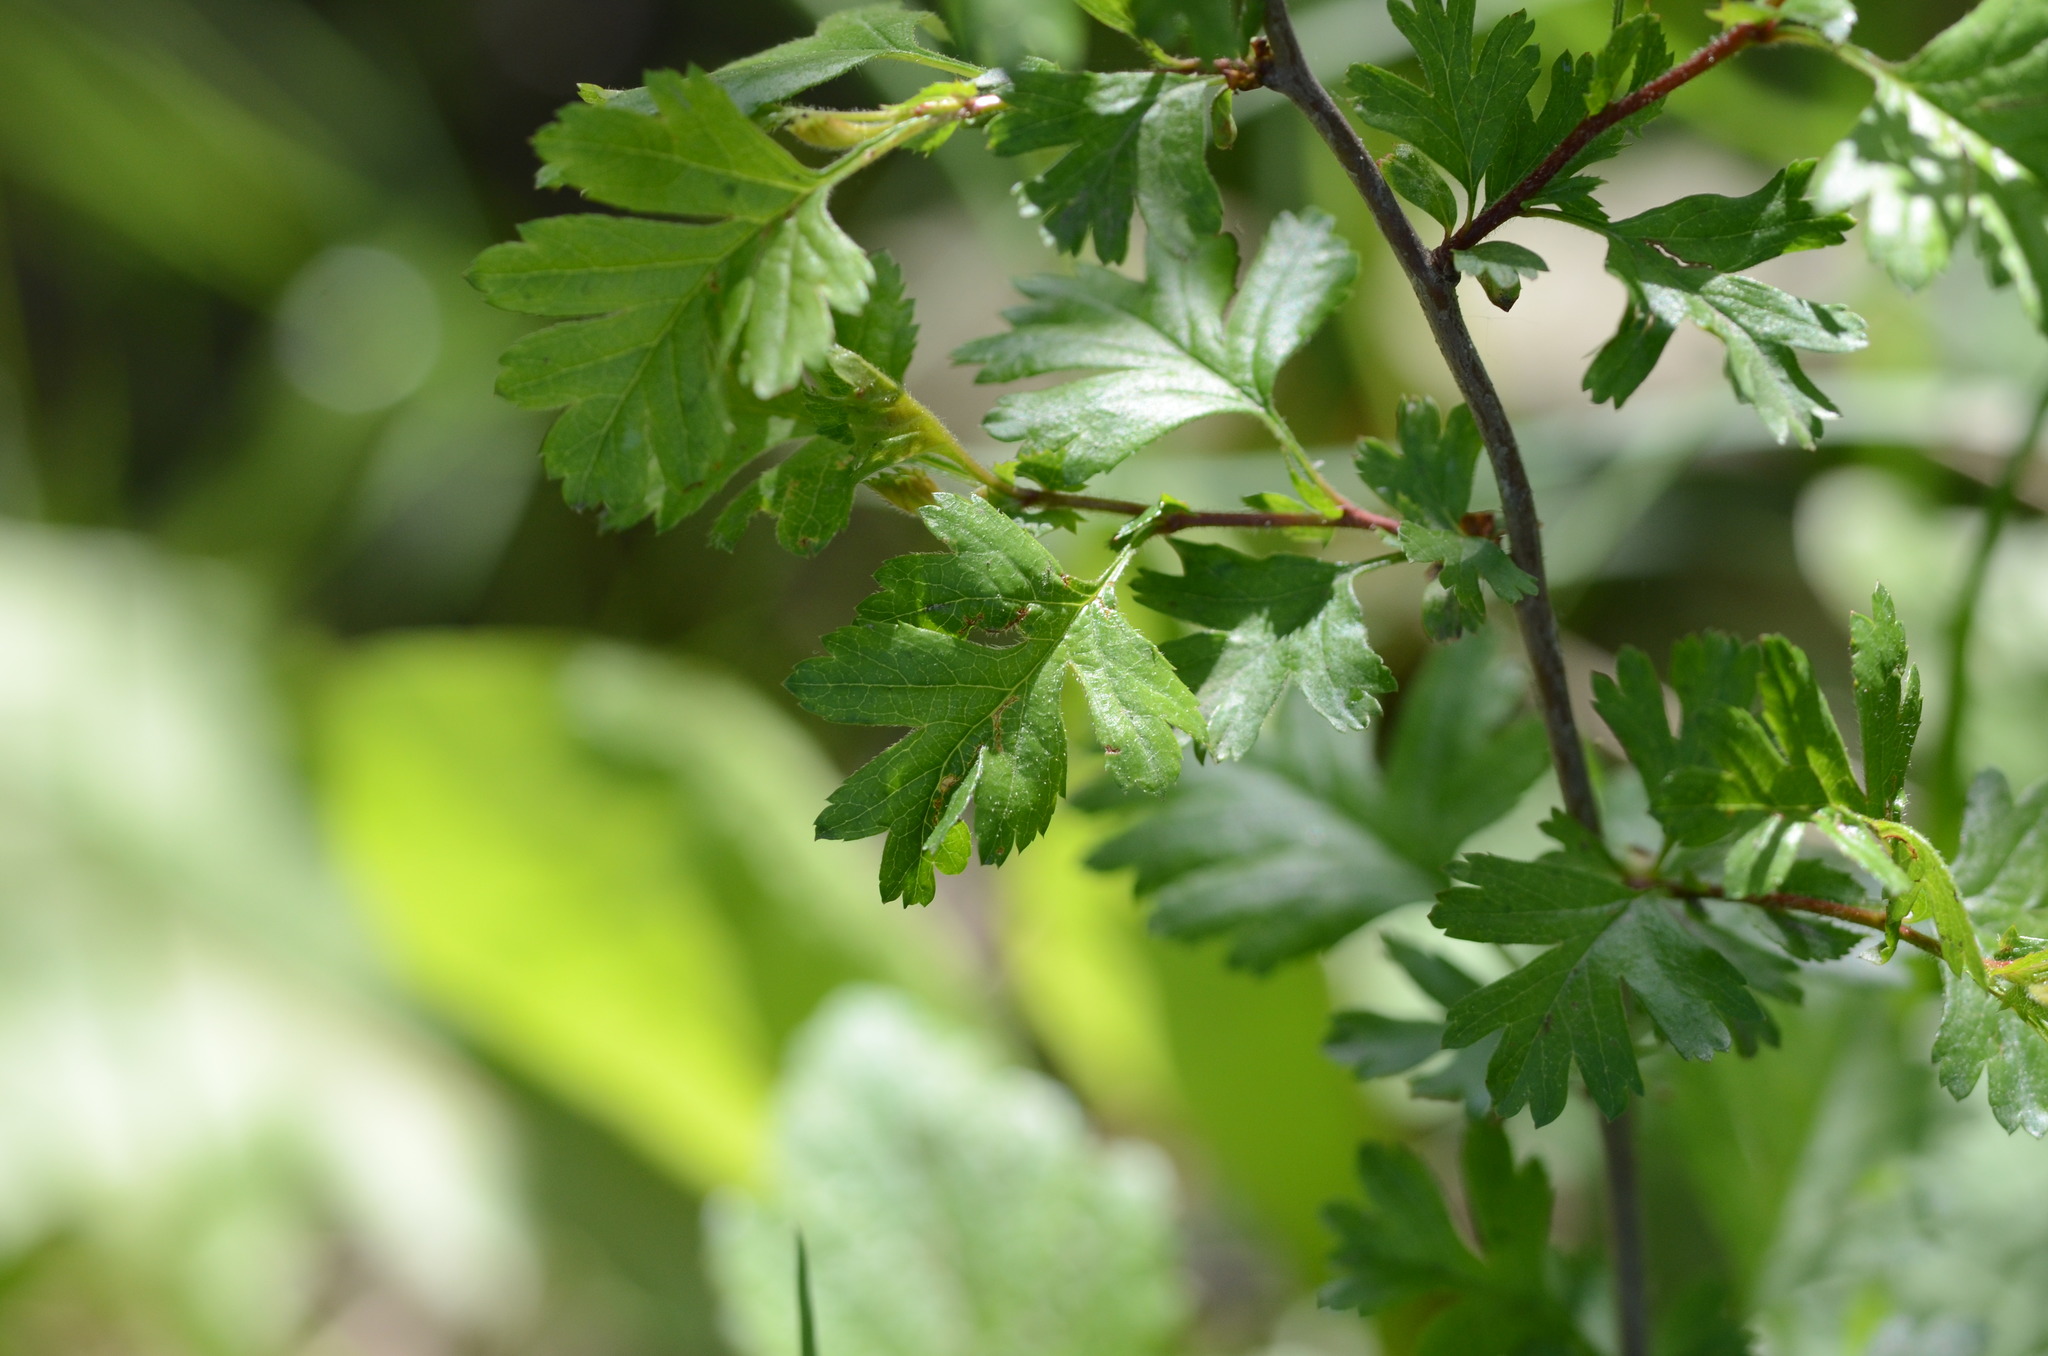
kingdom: Plantae
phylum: Tracheophyta
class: Magnoliopsida
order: Rosales
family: Rosaceae
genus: Crataegus
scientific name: Crataegus monogyna
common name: Hawthorn
